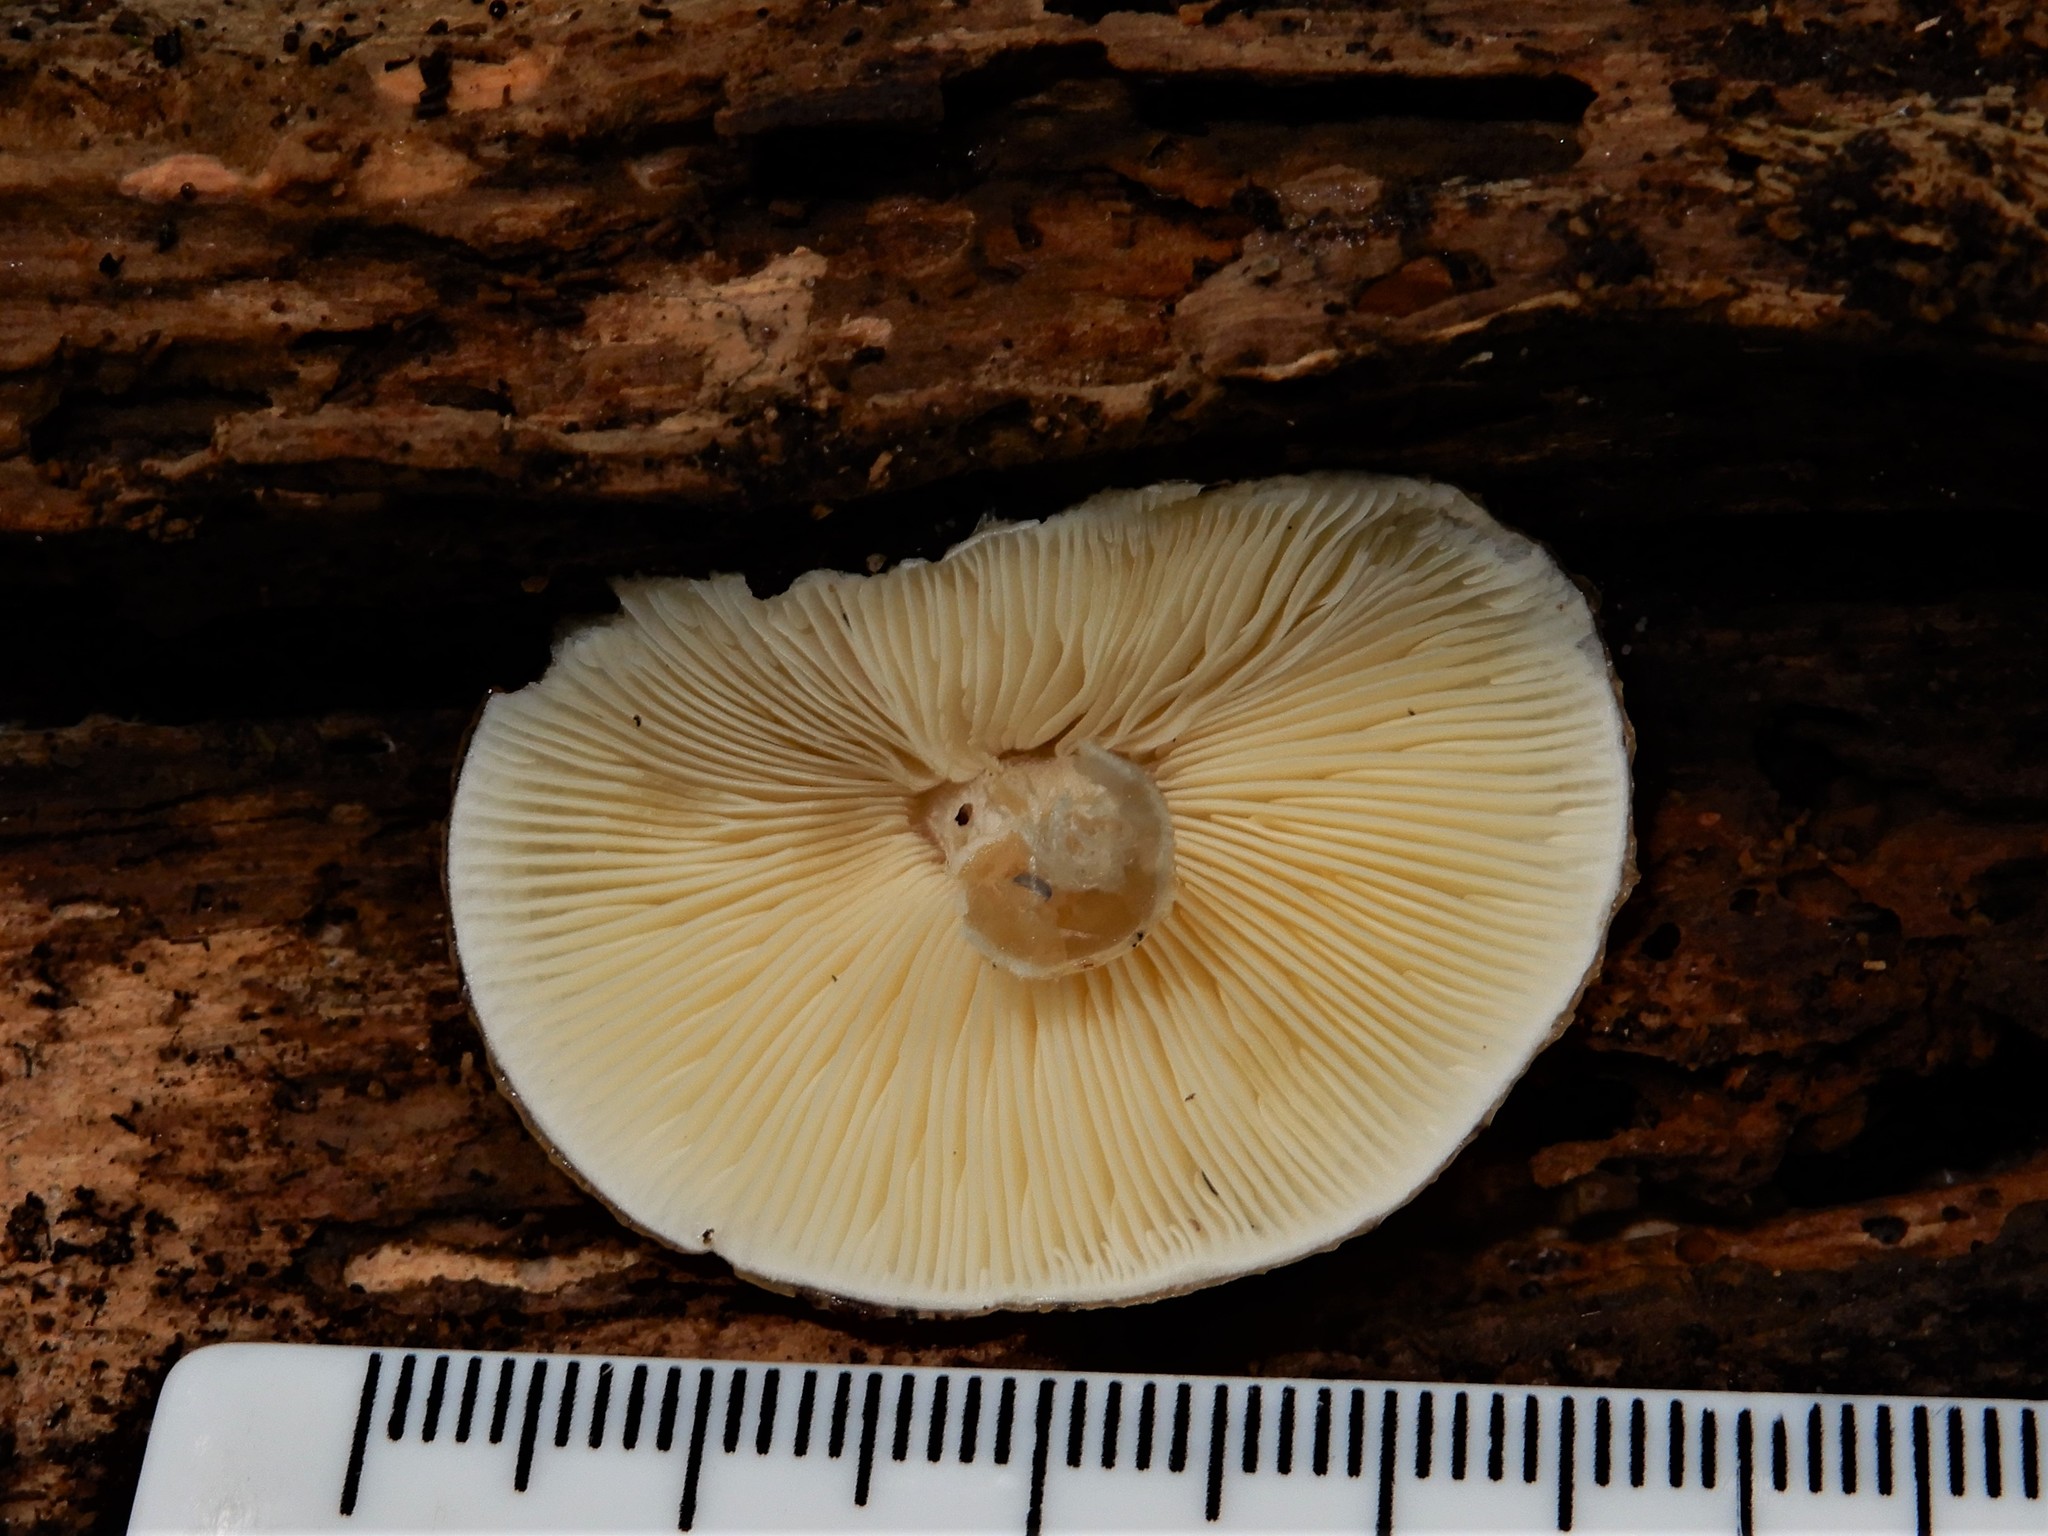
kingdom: Fungi
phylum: Basidiomycota
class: Agaricomycetes
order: Agaricales
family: Amanitaceae
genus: Zhuliangomyces
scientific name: Zhuliangomyces
